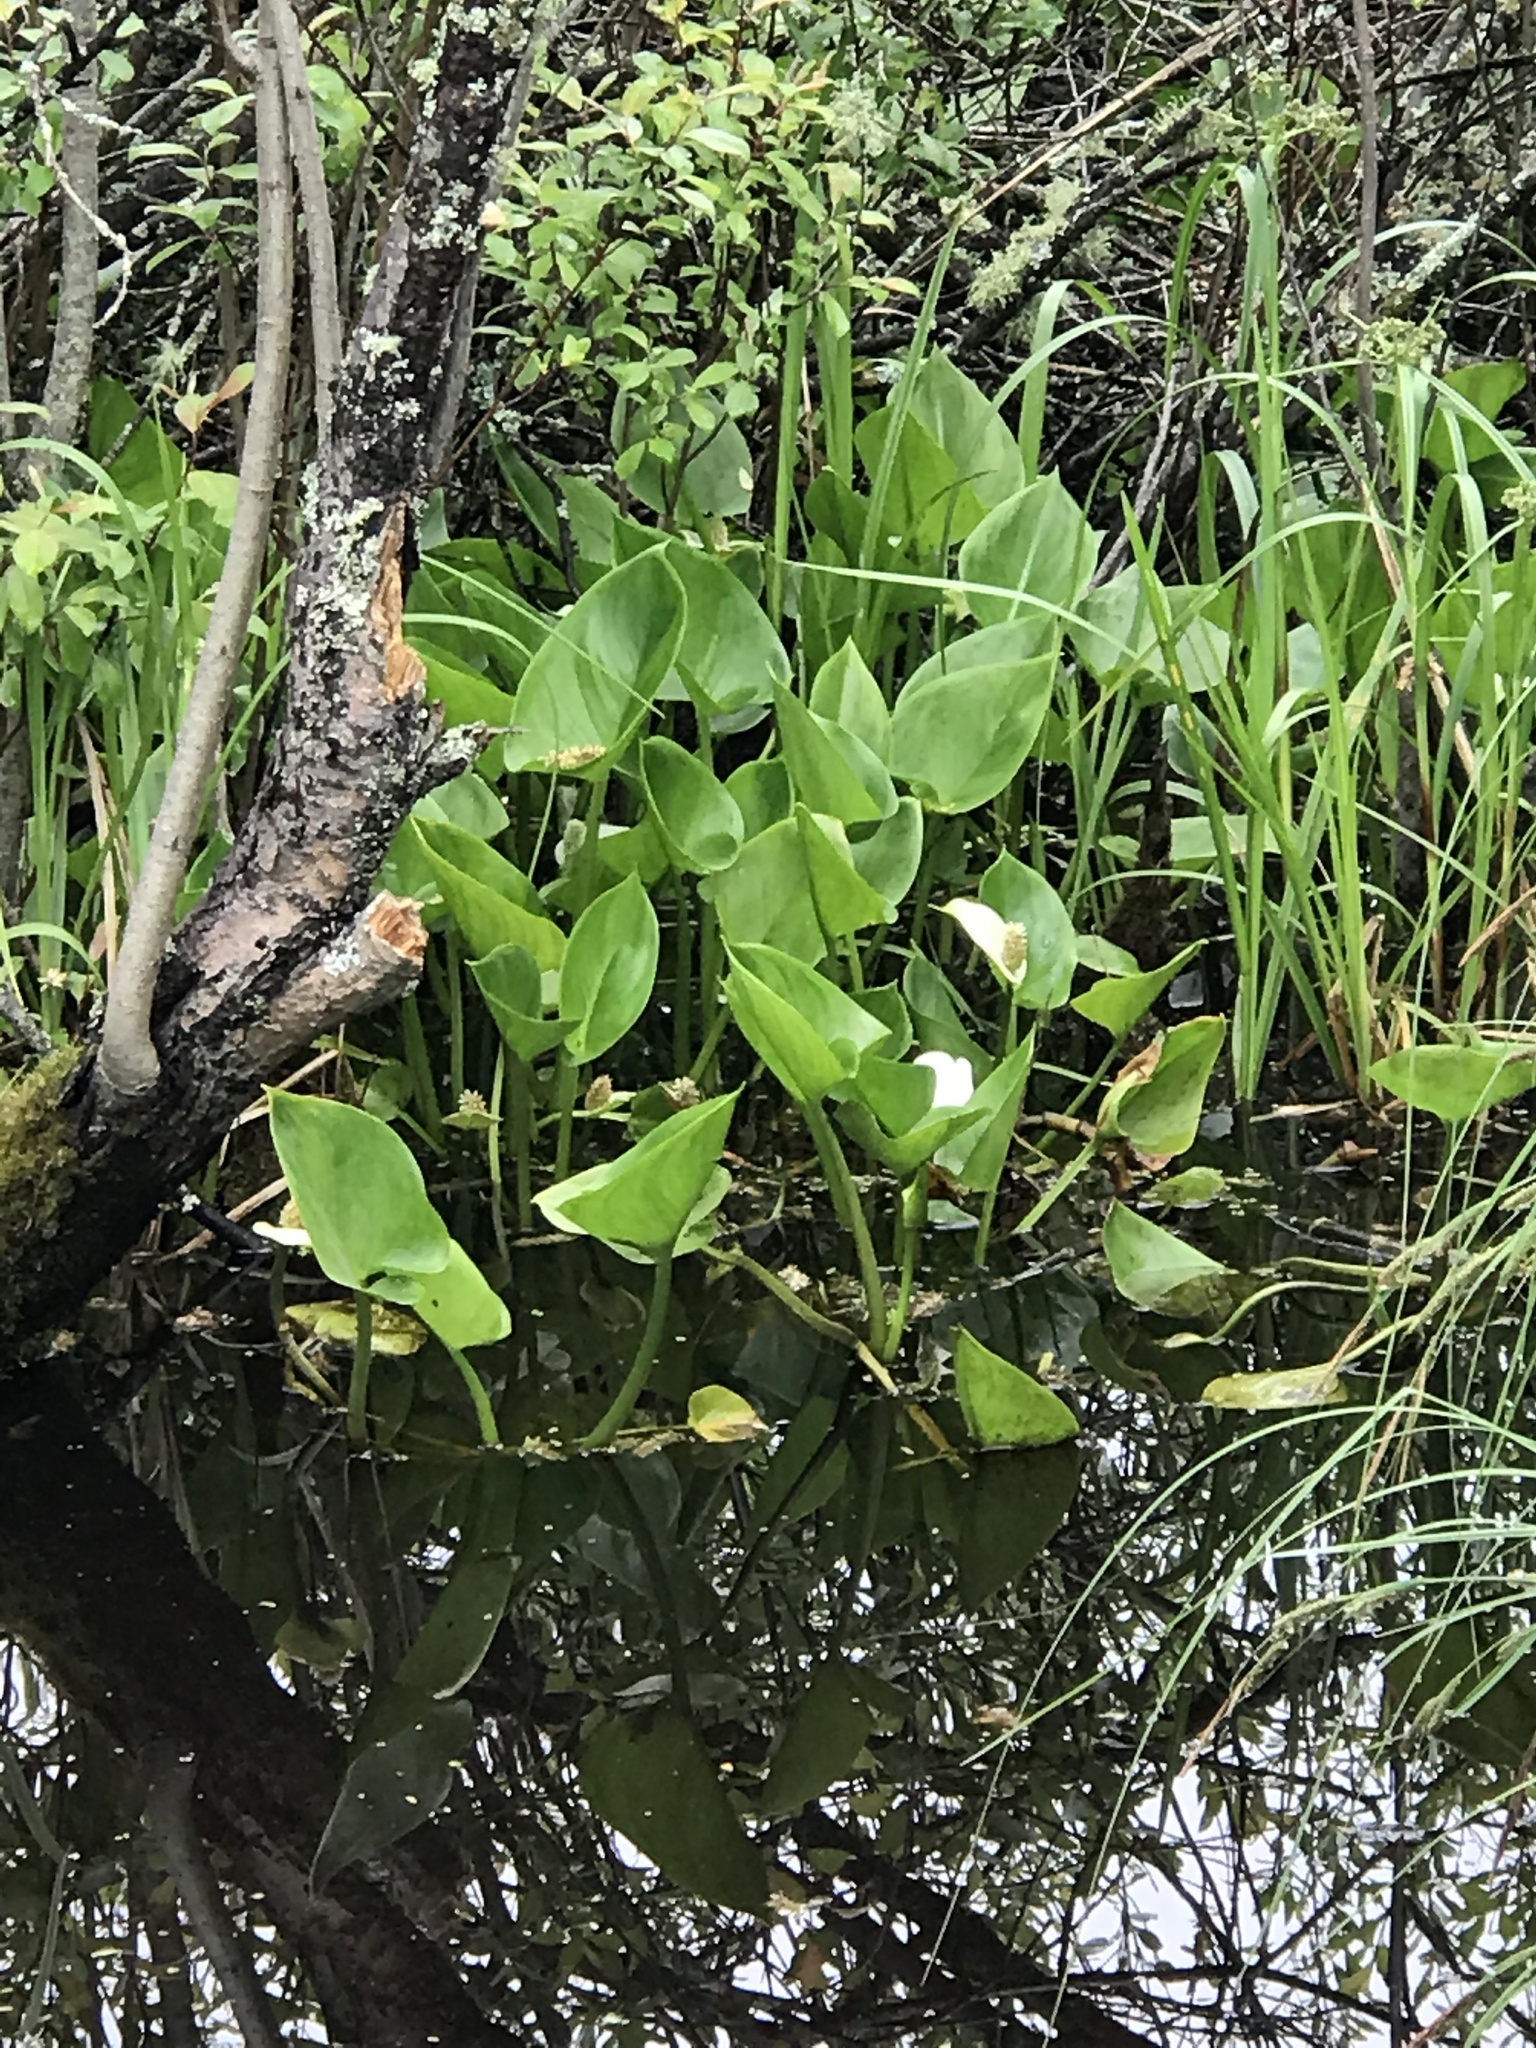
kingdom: Plantae
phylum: Tracheophyta
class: Liliopsida
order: Alismatales
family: Araceae
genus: Calla
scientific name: Calla palustris
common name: Bog arum
